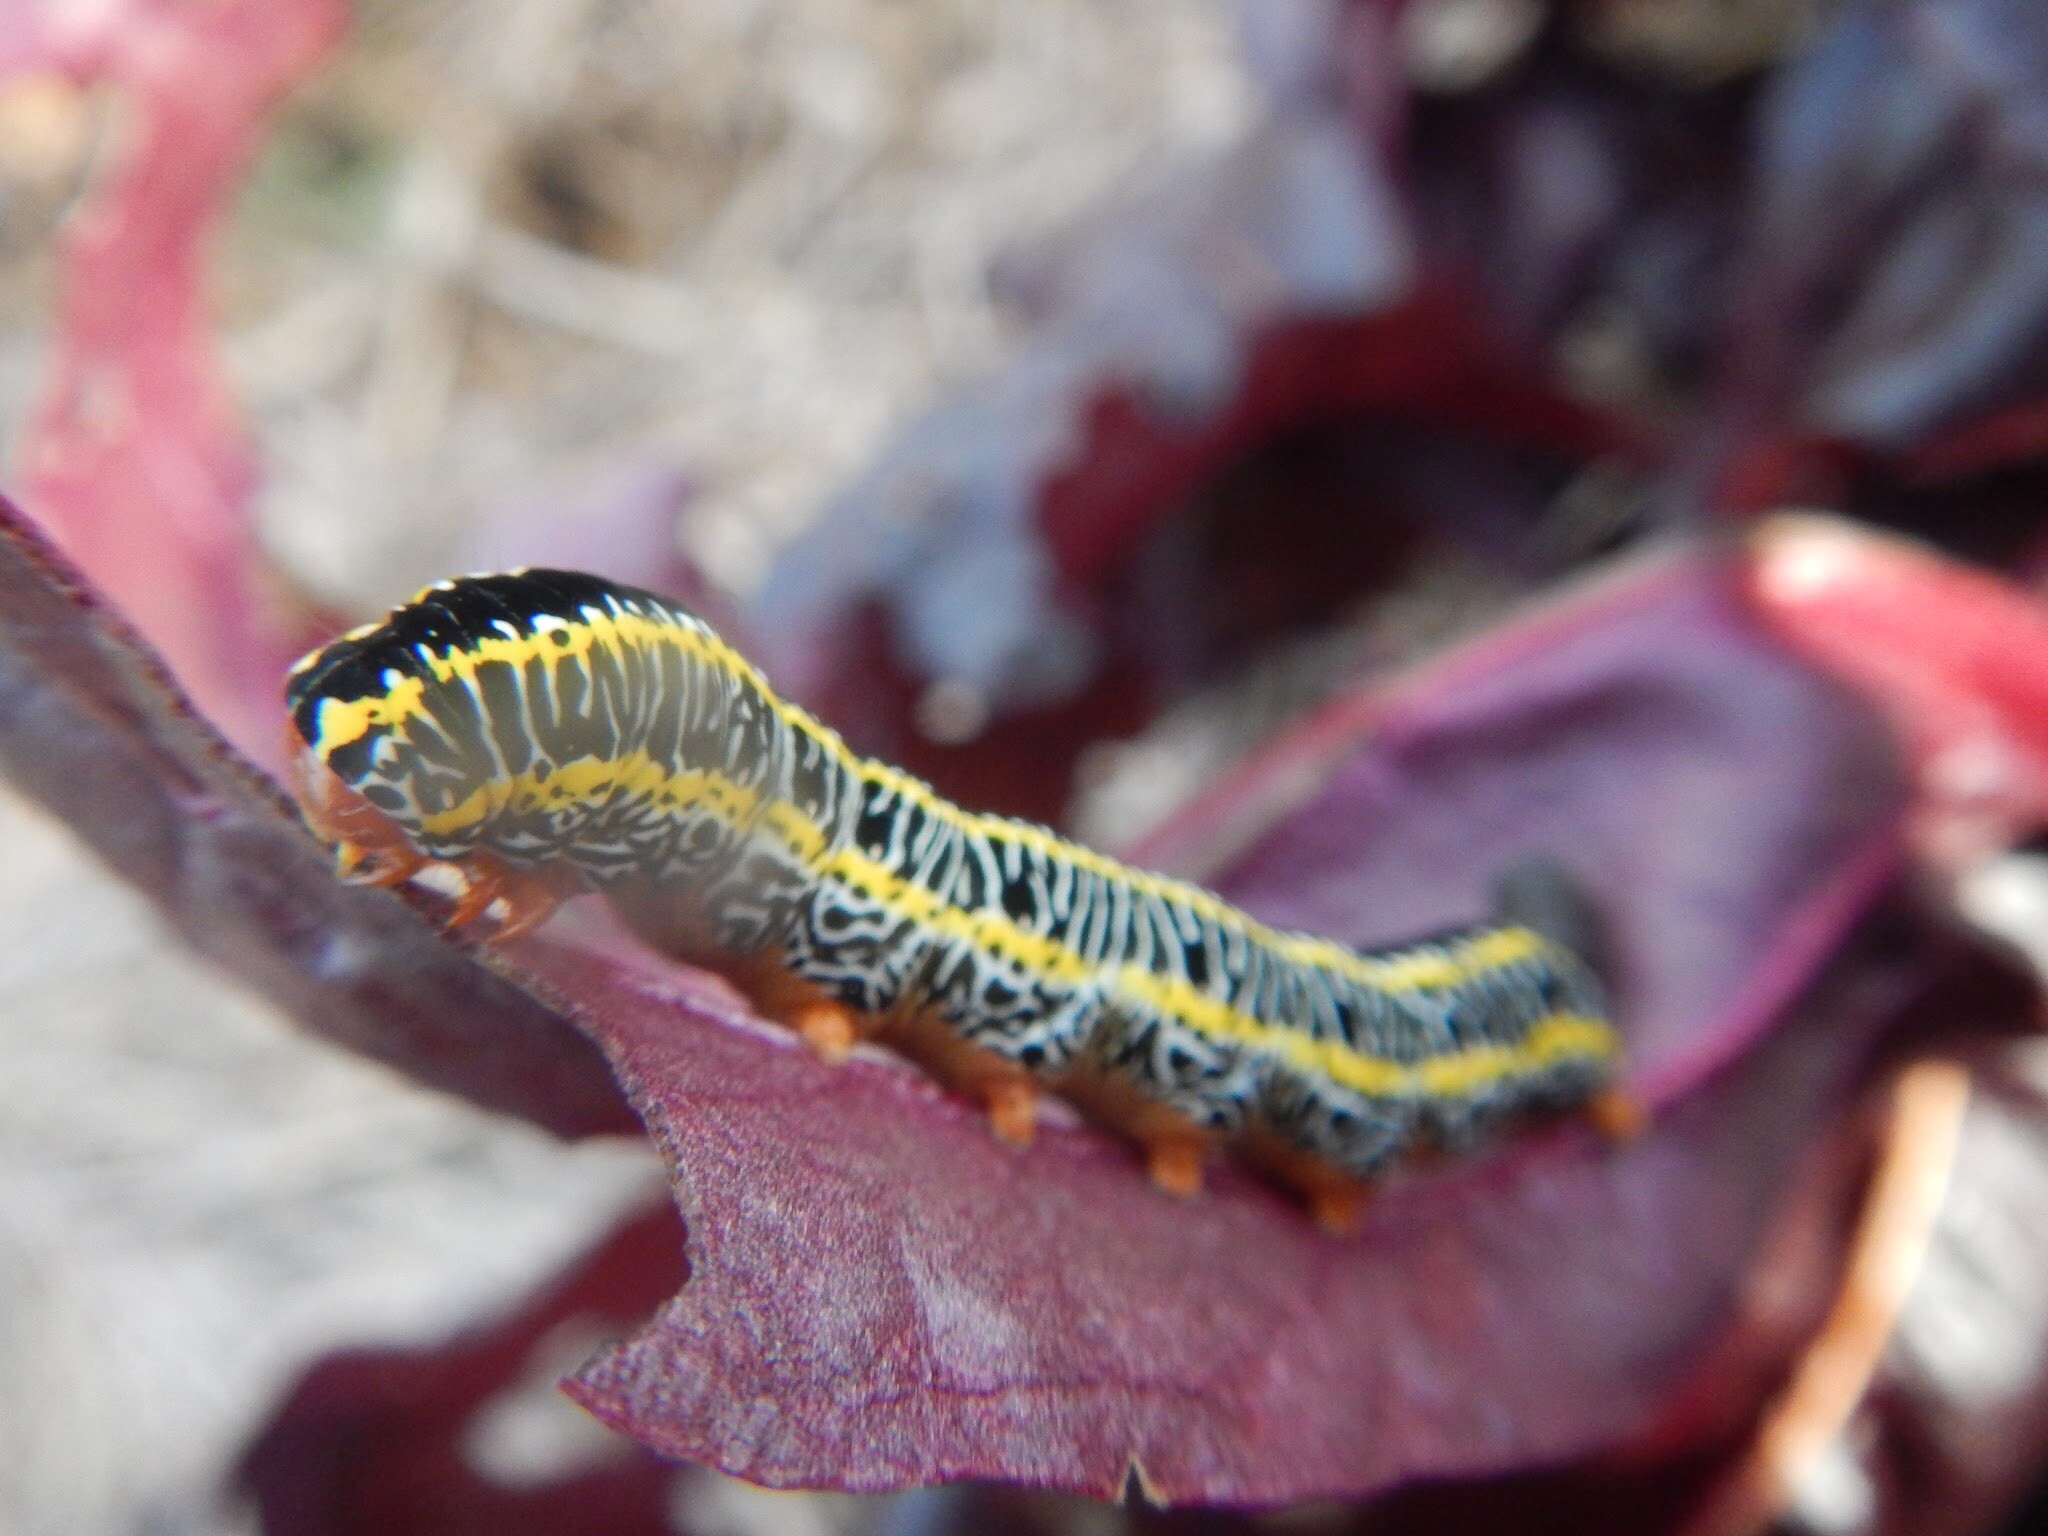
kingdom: Animalia
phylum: Arthropoda
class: Insecta
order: Lepidoptera
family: Noctuidae
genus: Melanchra
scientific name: Melanchra picta
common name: Zebra caterpillar
